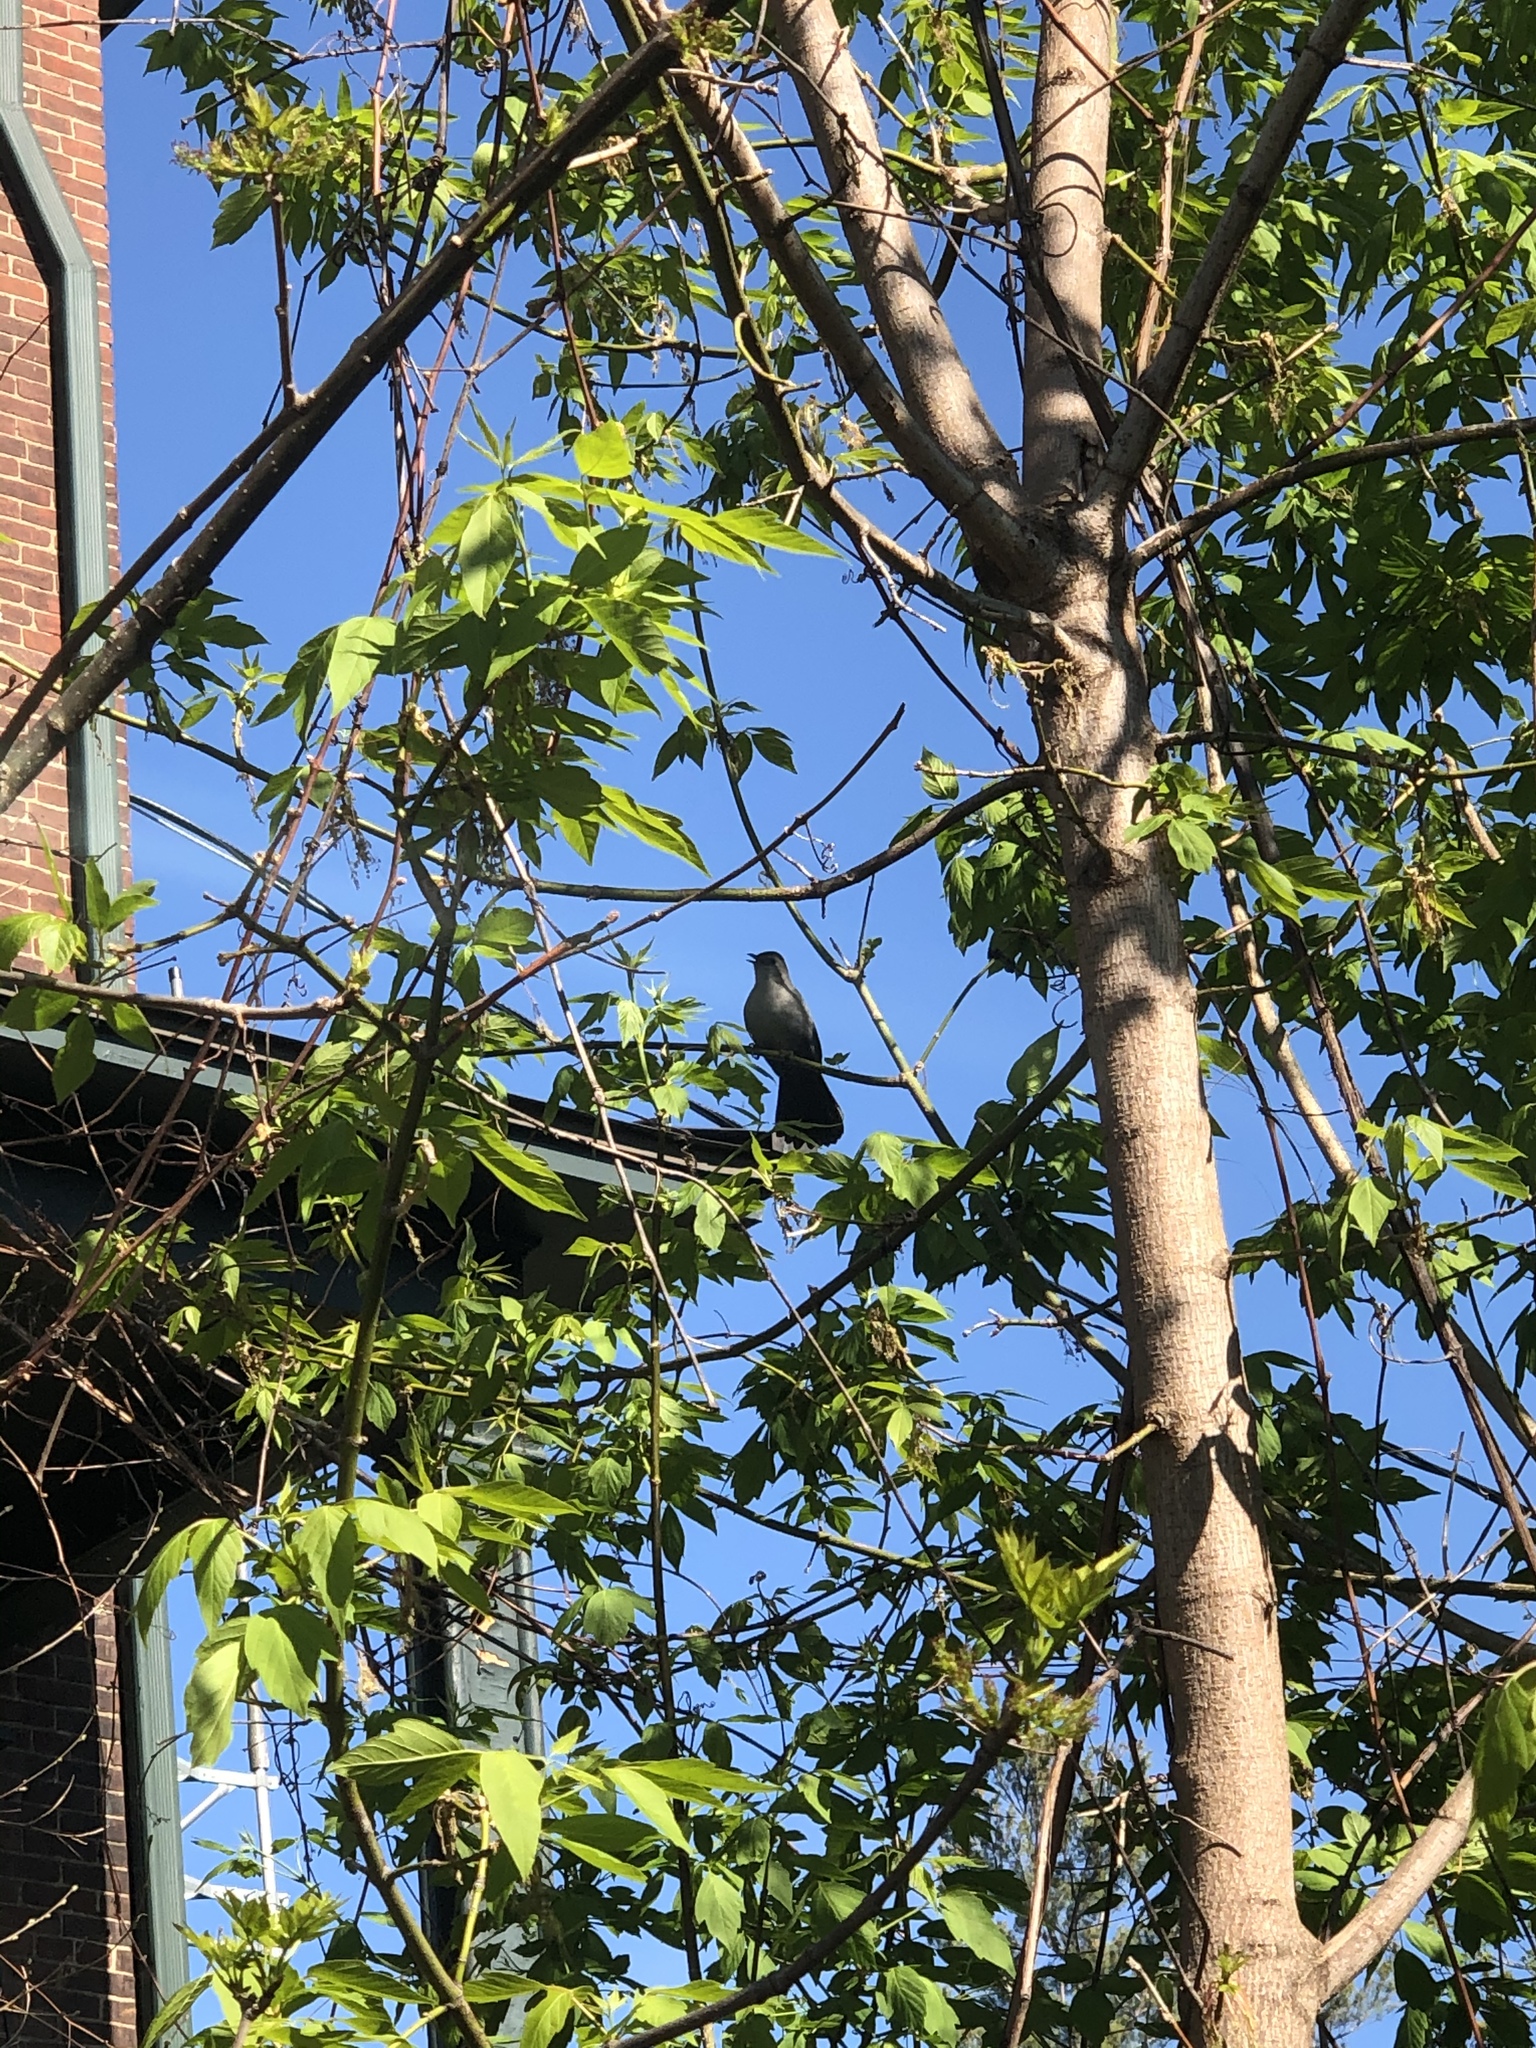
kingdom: Animalia
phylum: Chordata
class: Aves
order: Passeriformes
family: Mimidae
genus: Dumetella
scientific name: Dumetella carolinensis
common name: Gray catbird
